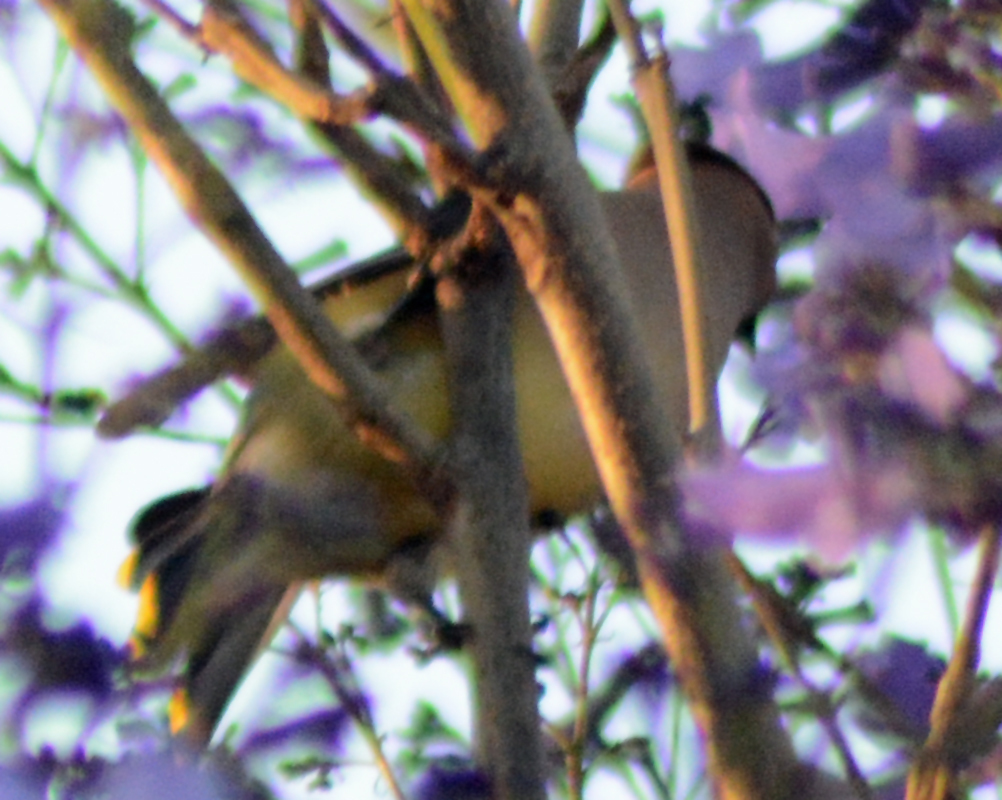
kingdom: Animalia
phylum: Chordata
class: Aves
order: Passeriformes
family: Bombycillidae
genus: Bombycilla
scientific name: Bombycilla cedrorum
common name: Cedar waxwing
